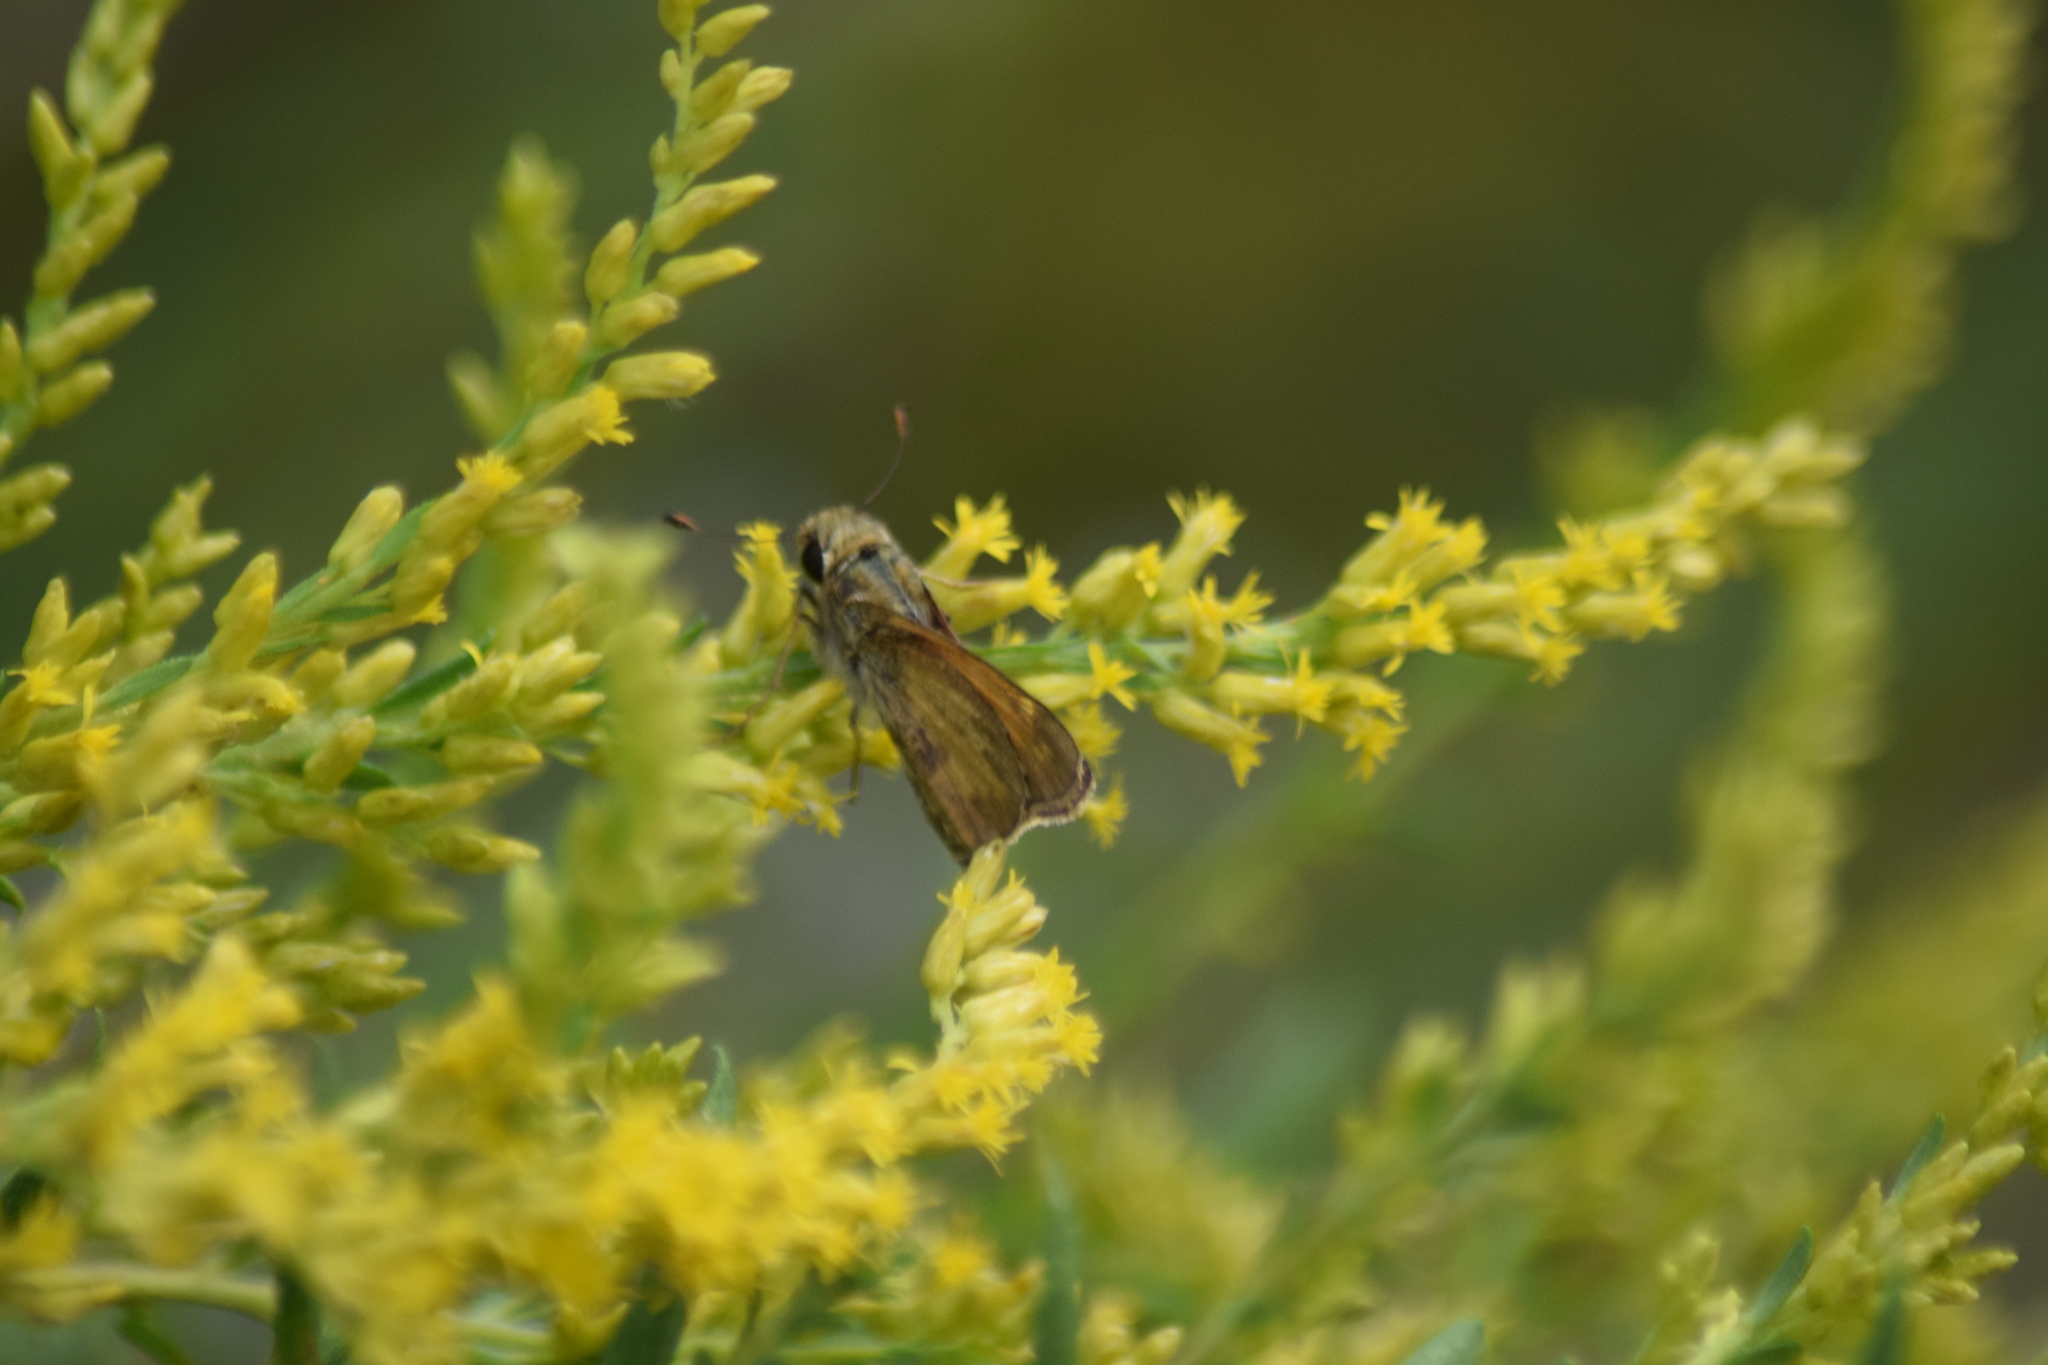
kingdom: Animalia
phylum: Arthropoda
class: Insecta
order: Lepidoptera
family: Hesperiidae
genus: Atalopedes
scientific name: Atalopedes
